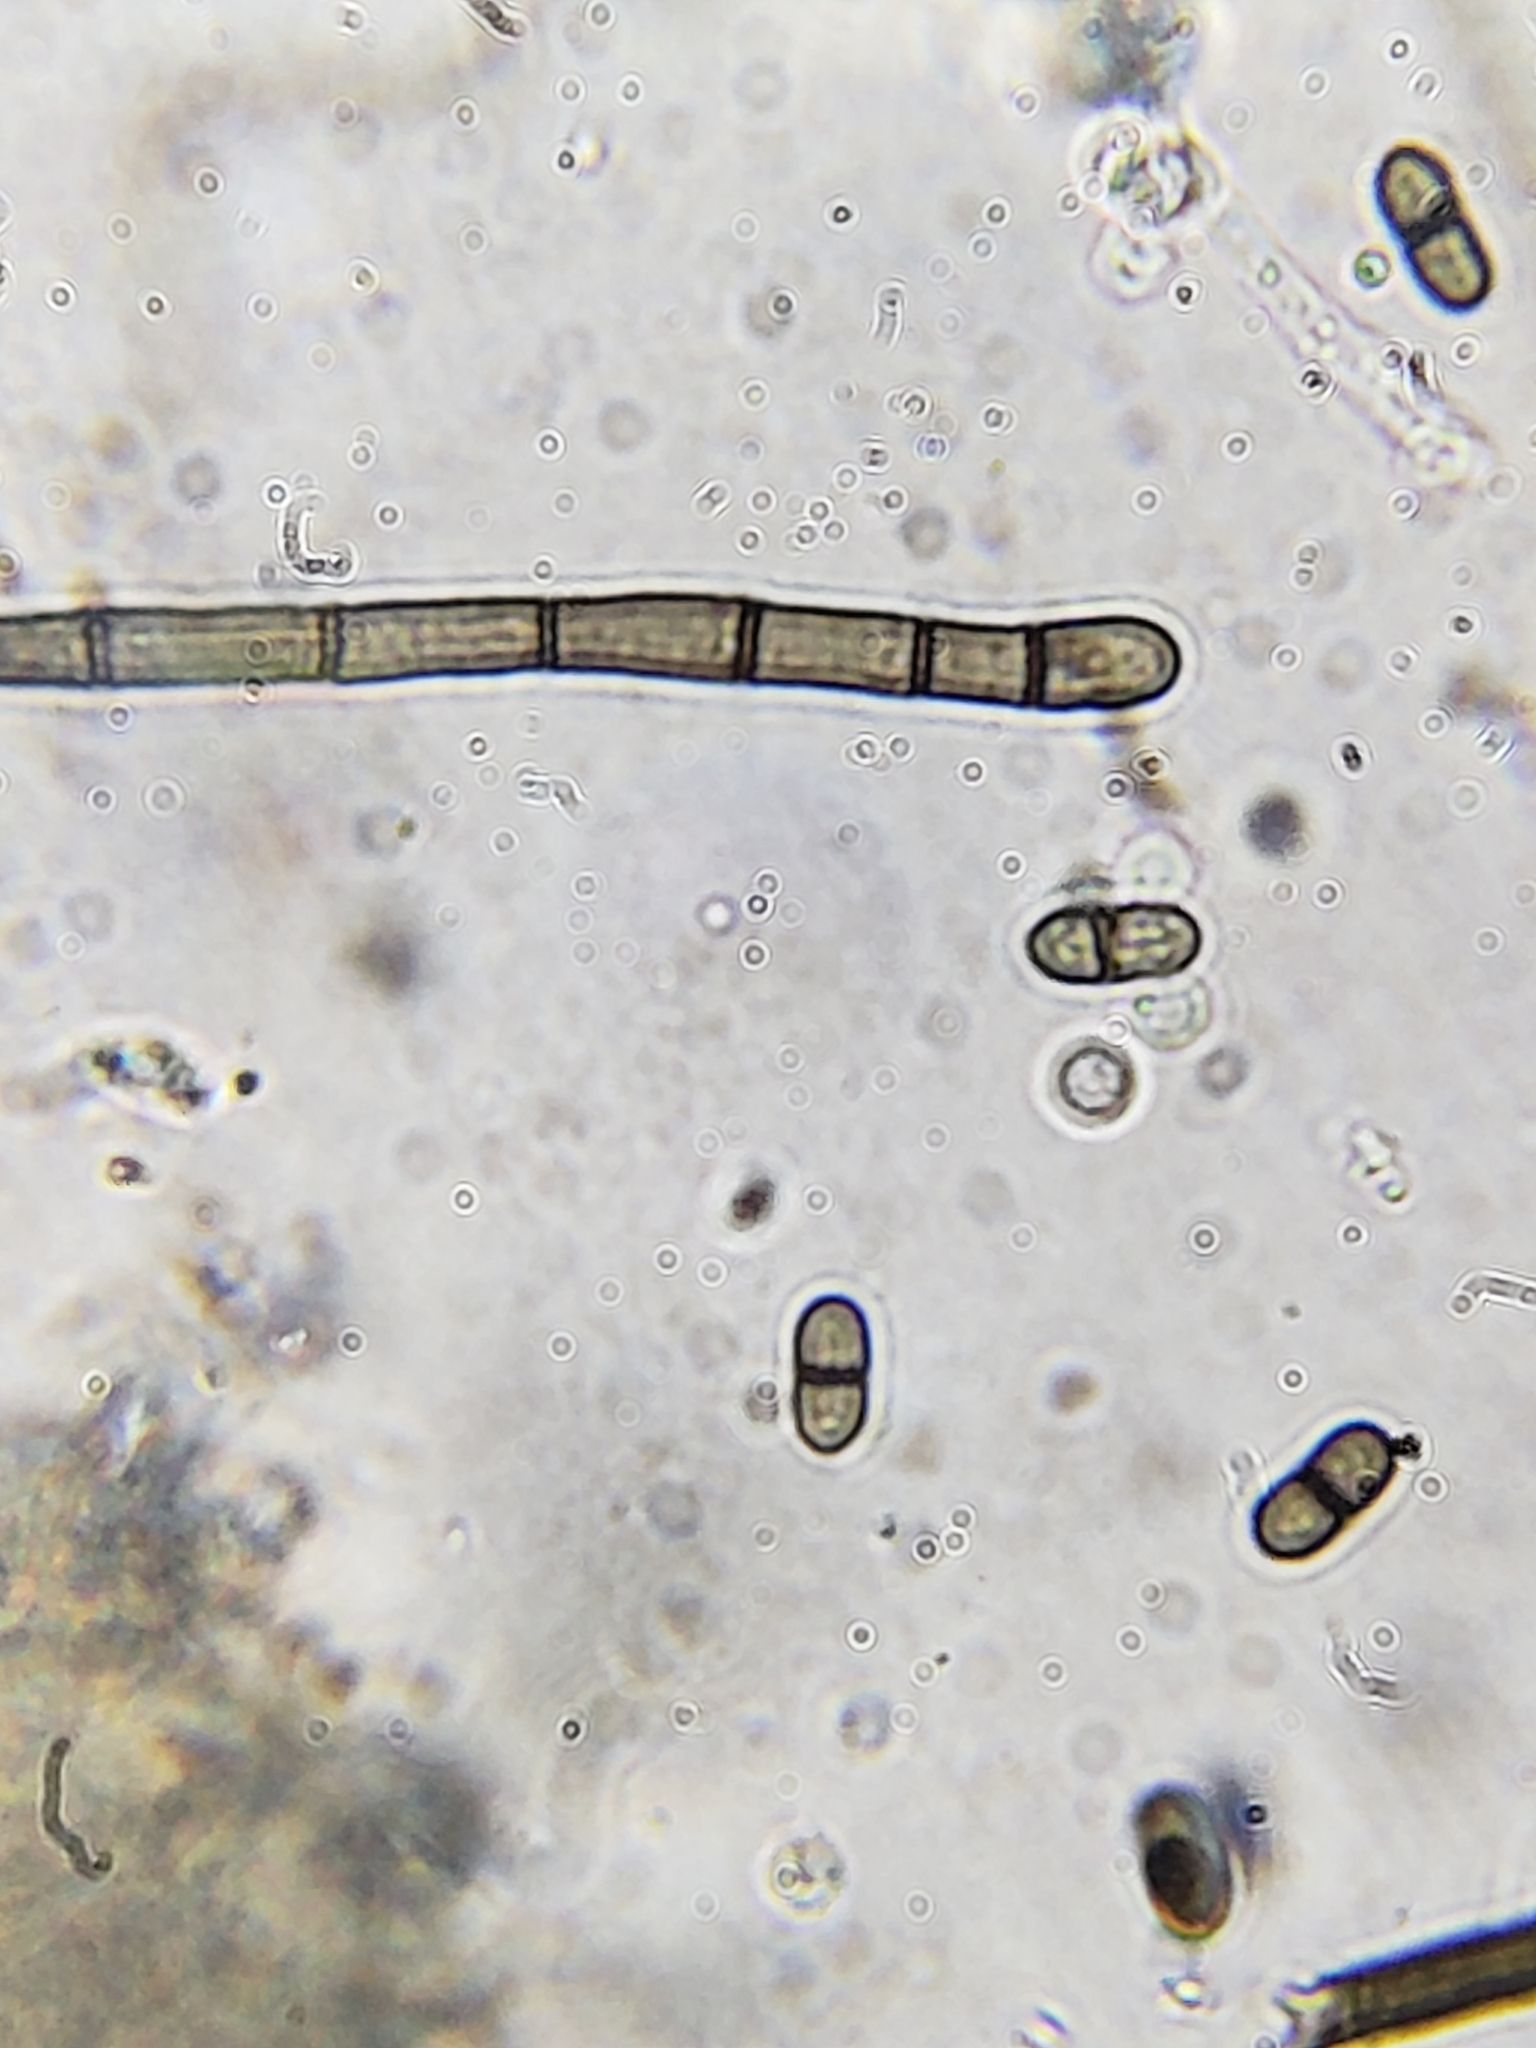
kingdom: Fungi
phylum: Ascomycota
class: Sordariomycetes
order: Sordariales
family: Helminthosphaeriaceae
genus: Spadicoides
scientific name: Spadicoides bina
